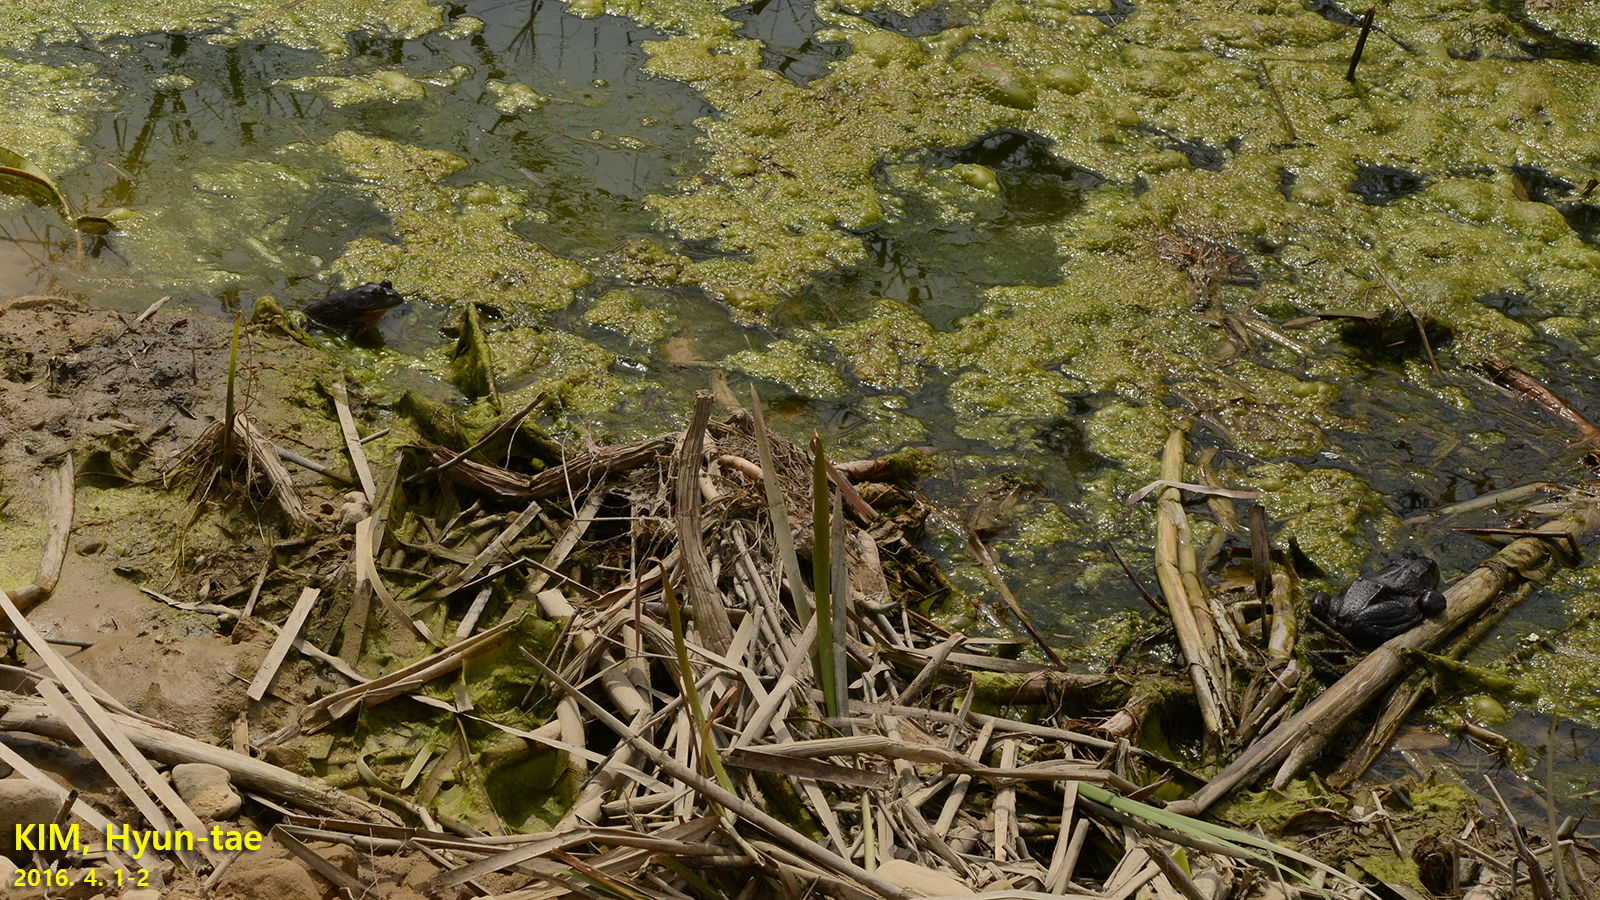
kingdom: Animalia
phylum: Chordata
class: Amphibia
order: Anura
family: Ranidae
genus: Lithobates
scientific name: Lithobates catesbeianus
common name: American bullfrog
